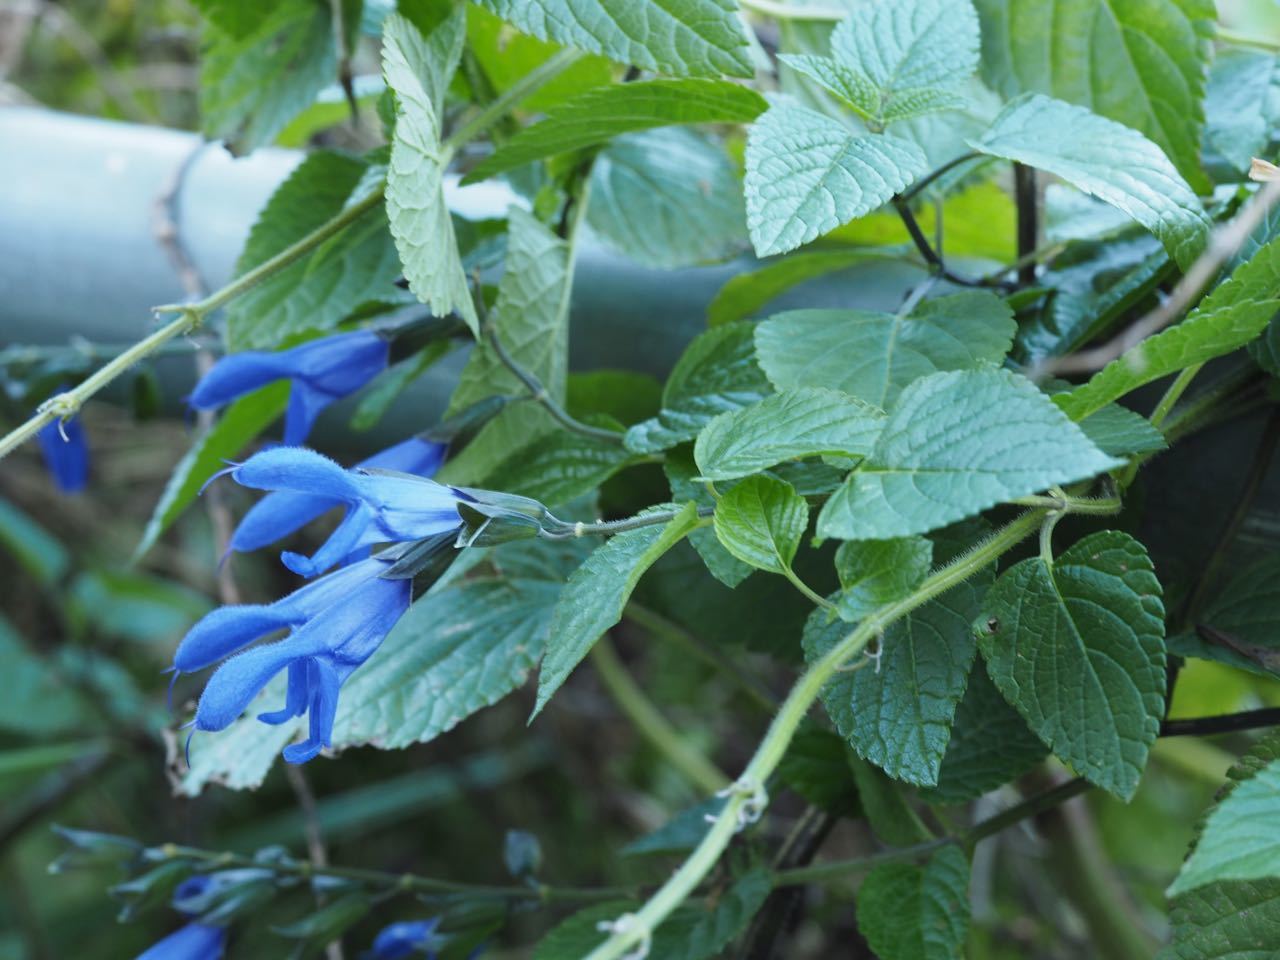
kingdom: Plantae
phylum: Tracheophyta
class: Magnoliopsida
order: Lamiales
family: Lamiaceae
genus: Salvia
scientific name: Salvia guaranitica
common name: Anise-scented sage
